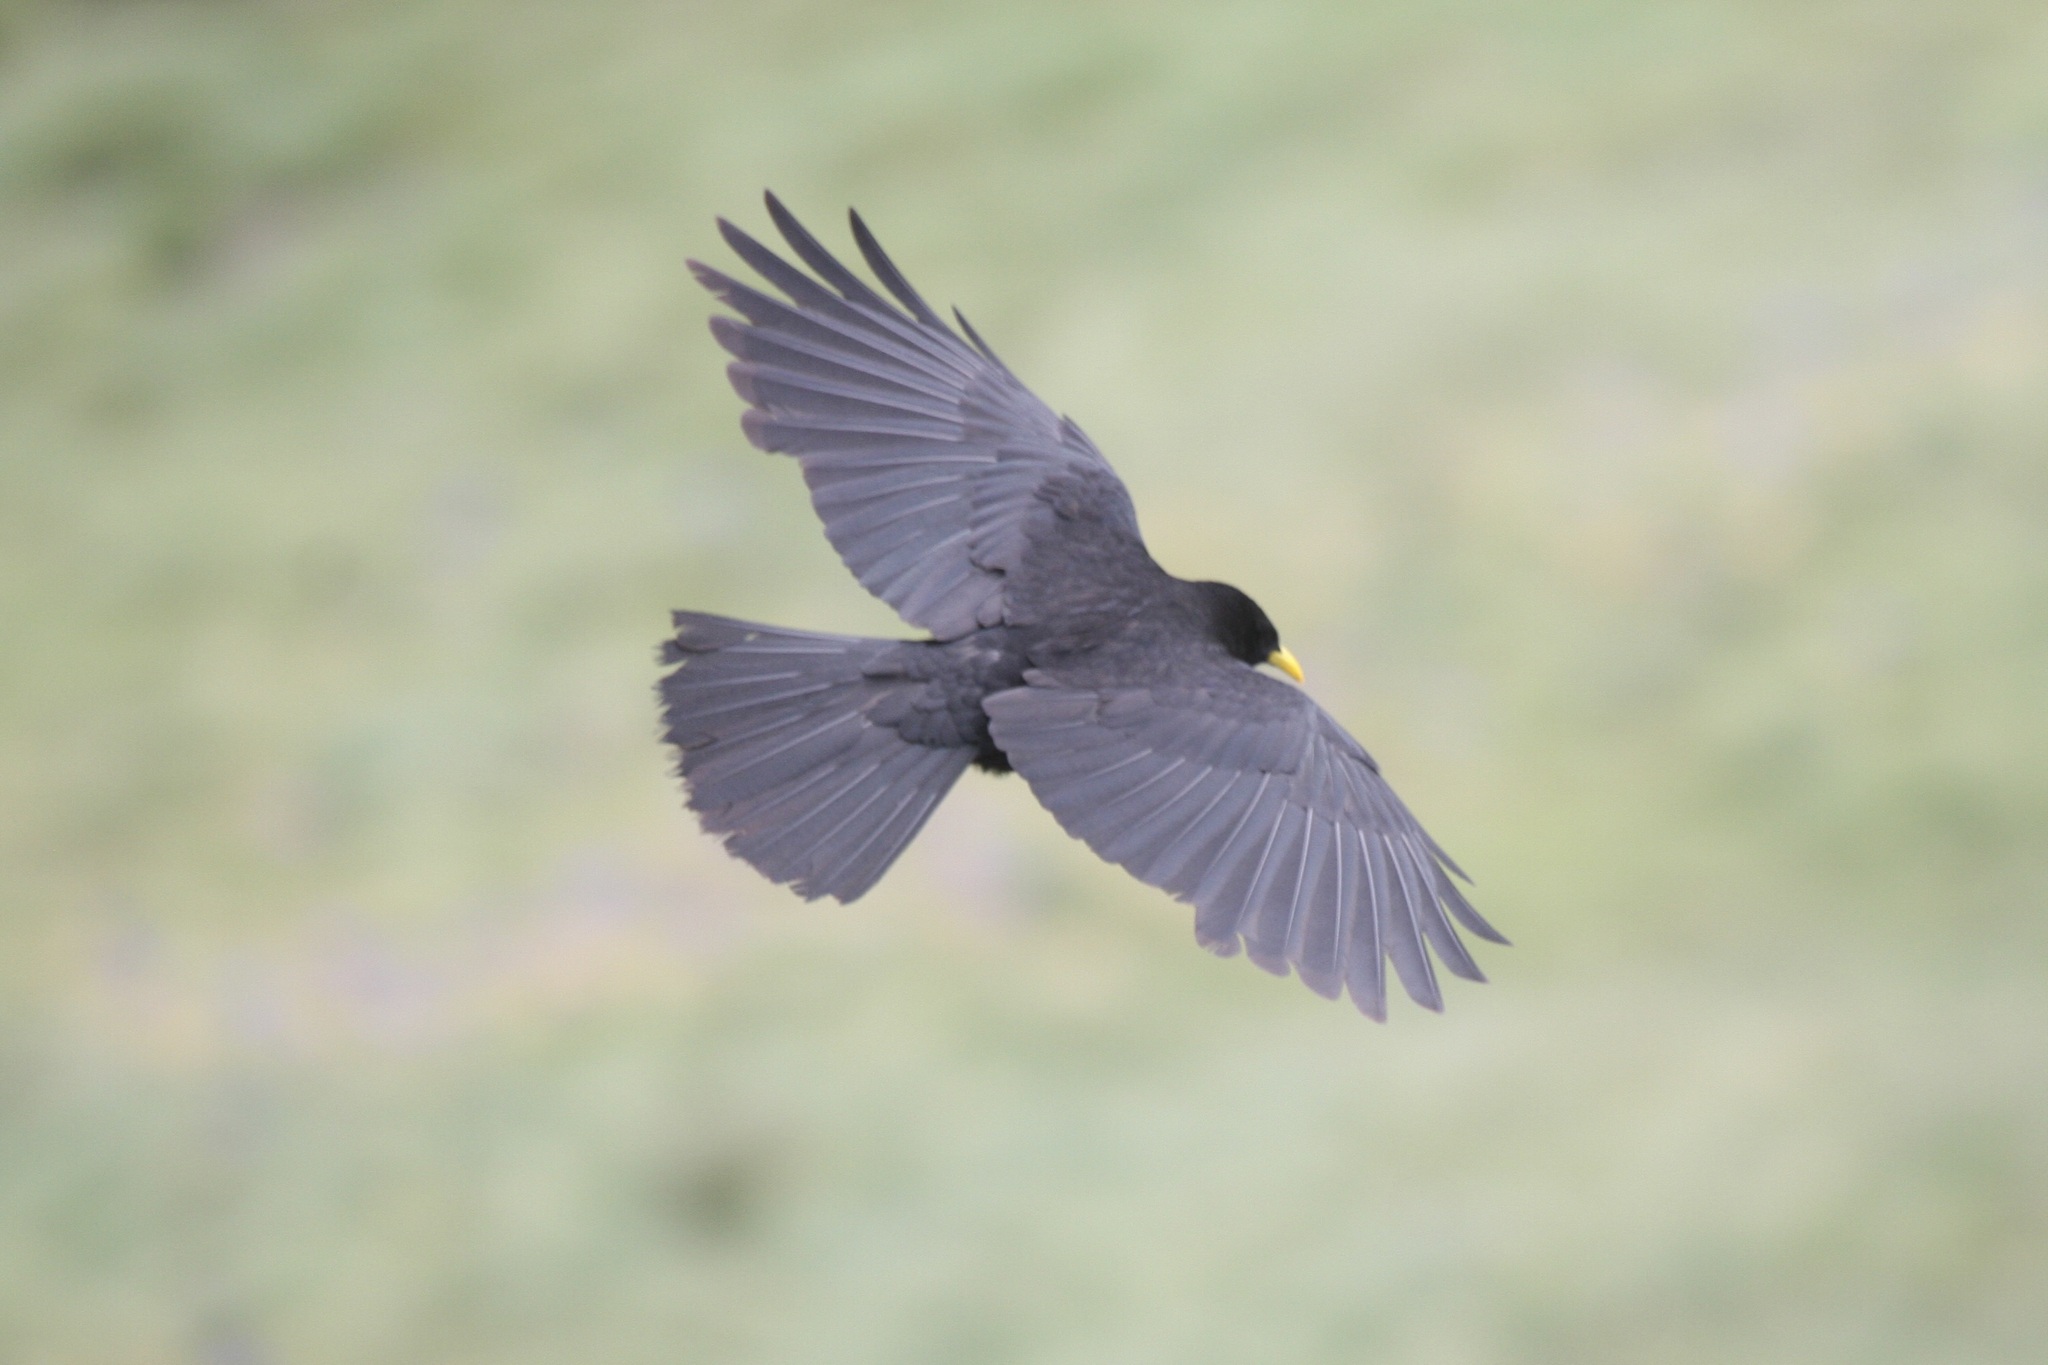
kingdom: Animalia
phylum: Chordata
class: Aves
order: Passeriformes
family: Corvidae
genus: Pyrrhocorax
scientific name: Pyrrhocorax graculus
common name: Alpine chough
